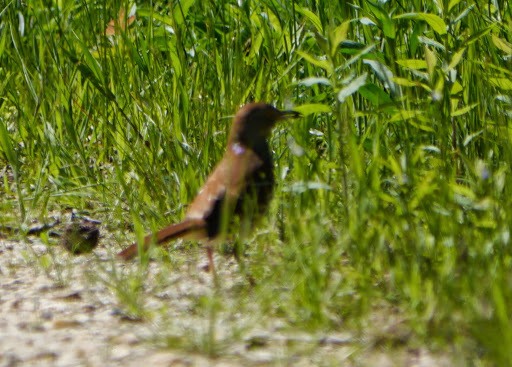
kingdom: Animalia
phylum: Chordata
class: Aves
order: Passeriformes
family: Mimidae
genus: Toxostoma
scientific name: Toxostoma rufum
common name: Brown thrasher
